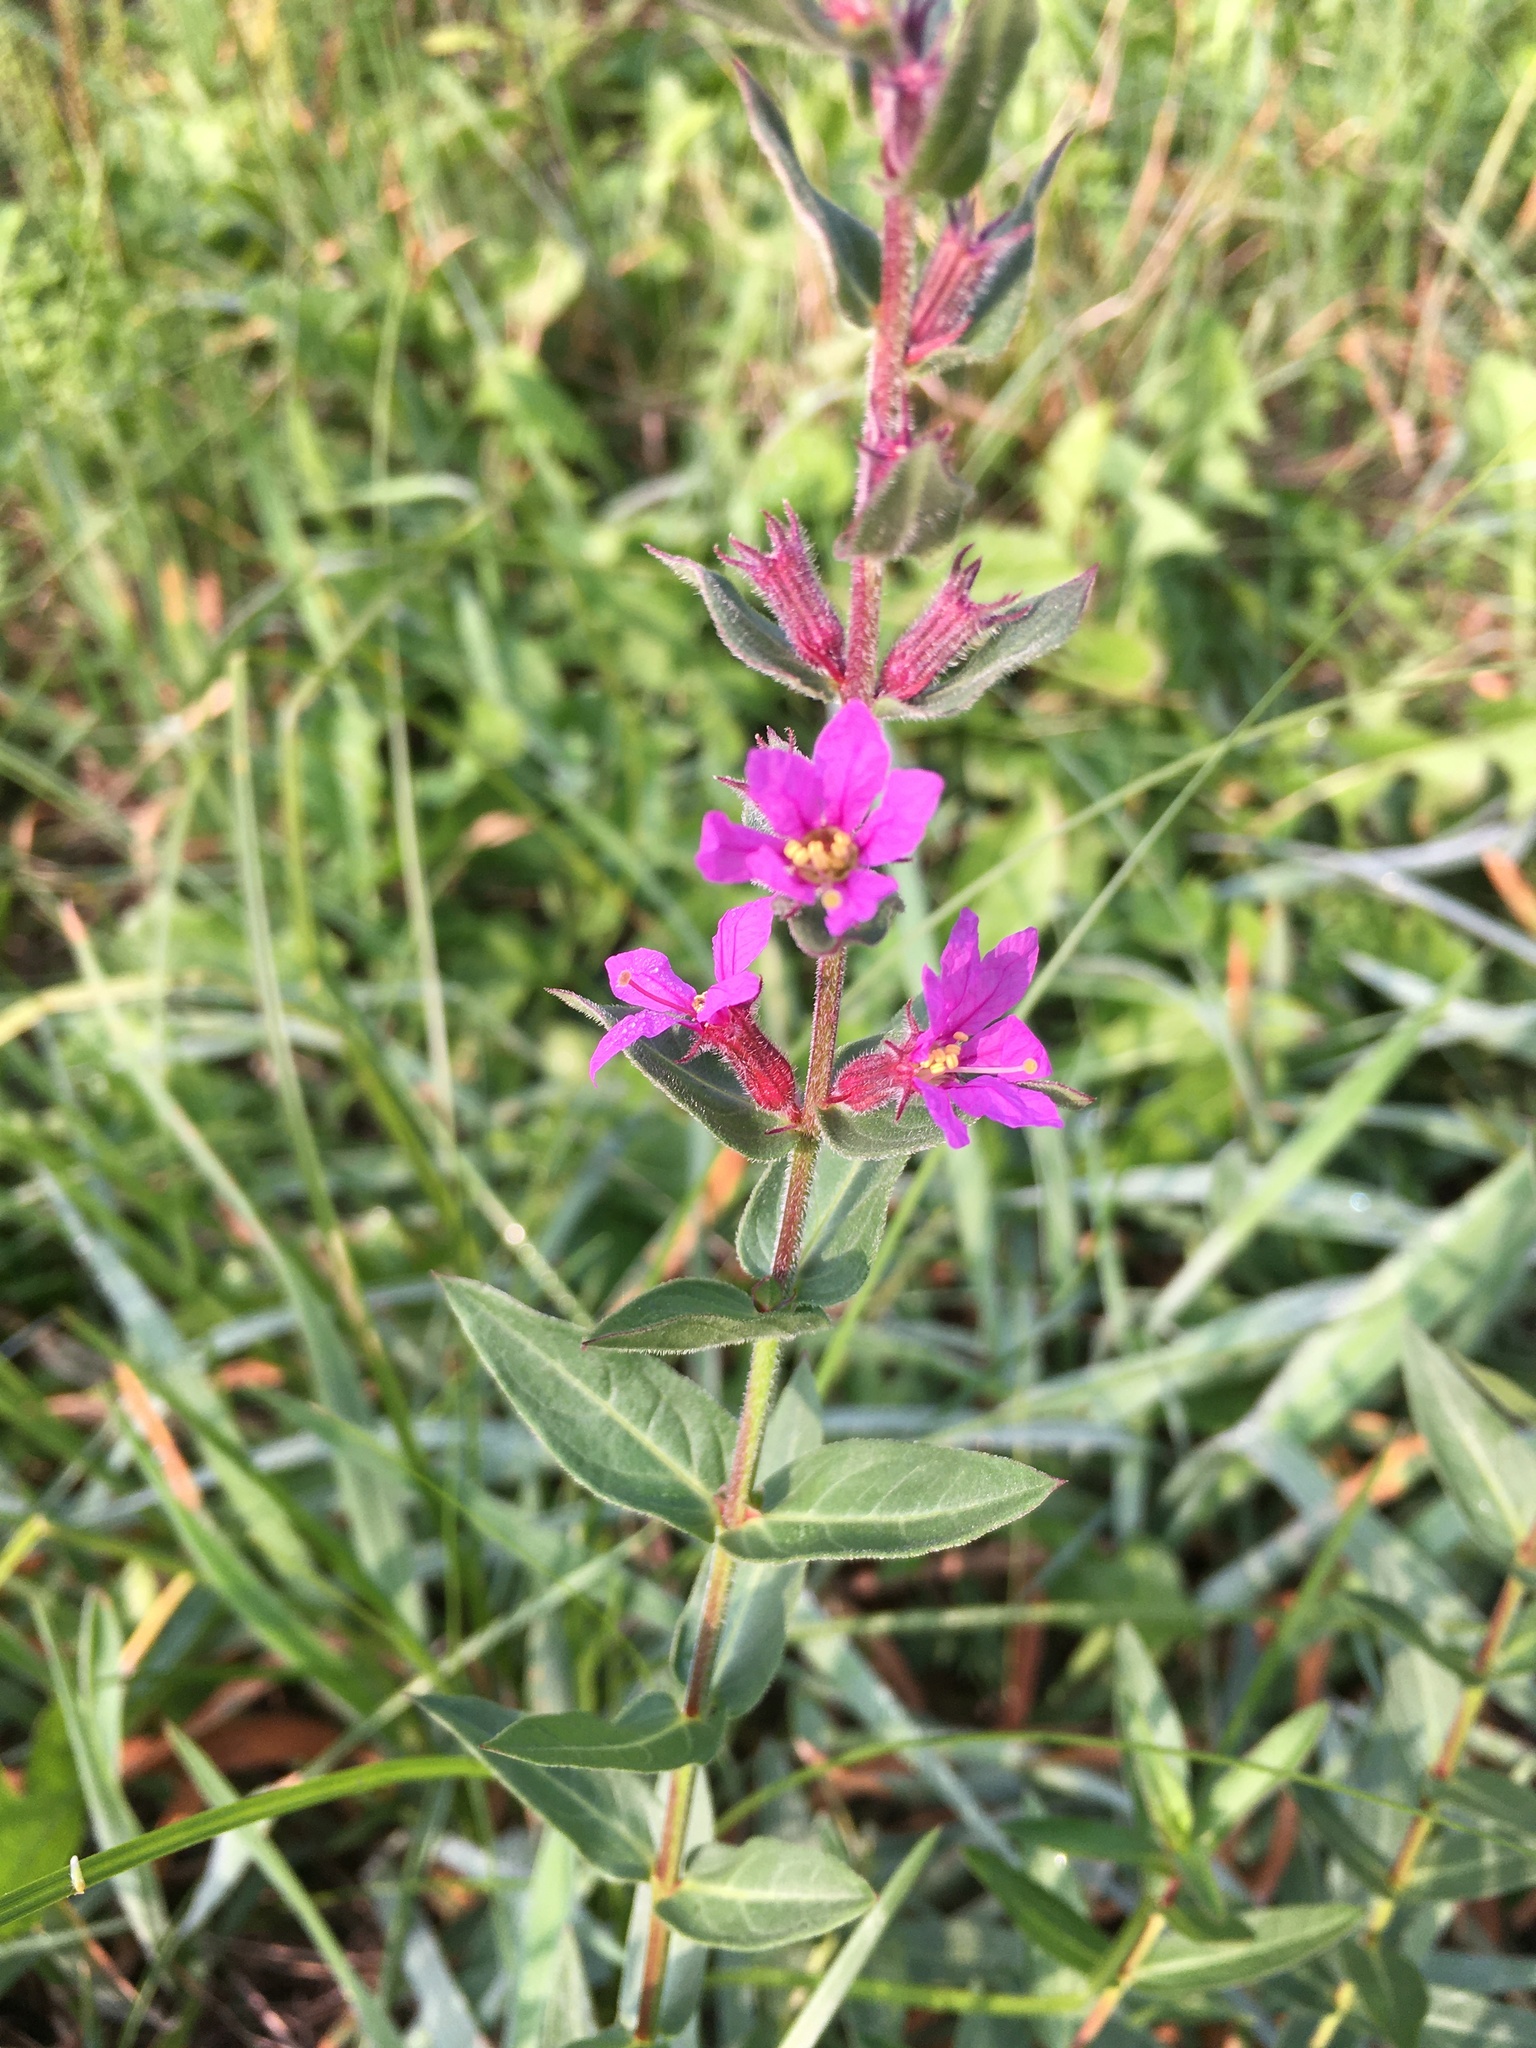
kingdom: Plantae
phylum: Tracheophyta
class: Magnoliopsida
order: Myrtales
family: Lythraceae
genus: Lythrum
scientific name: Lythrum salicaria
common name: Purple loosestrife
